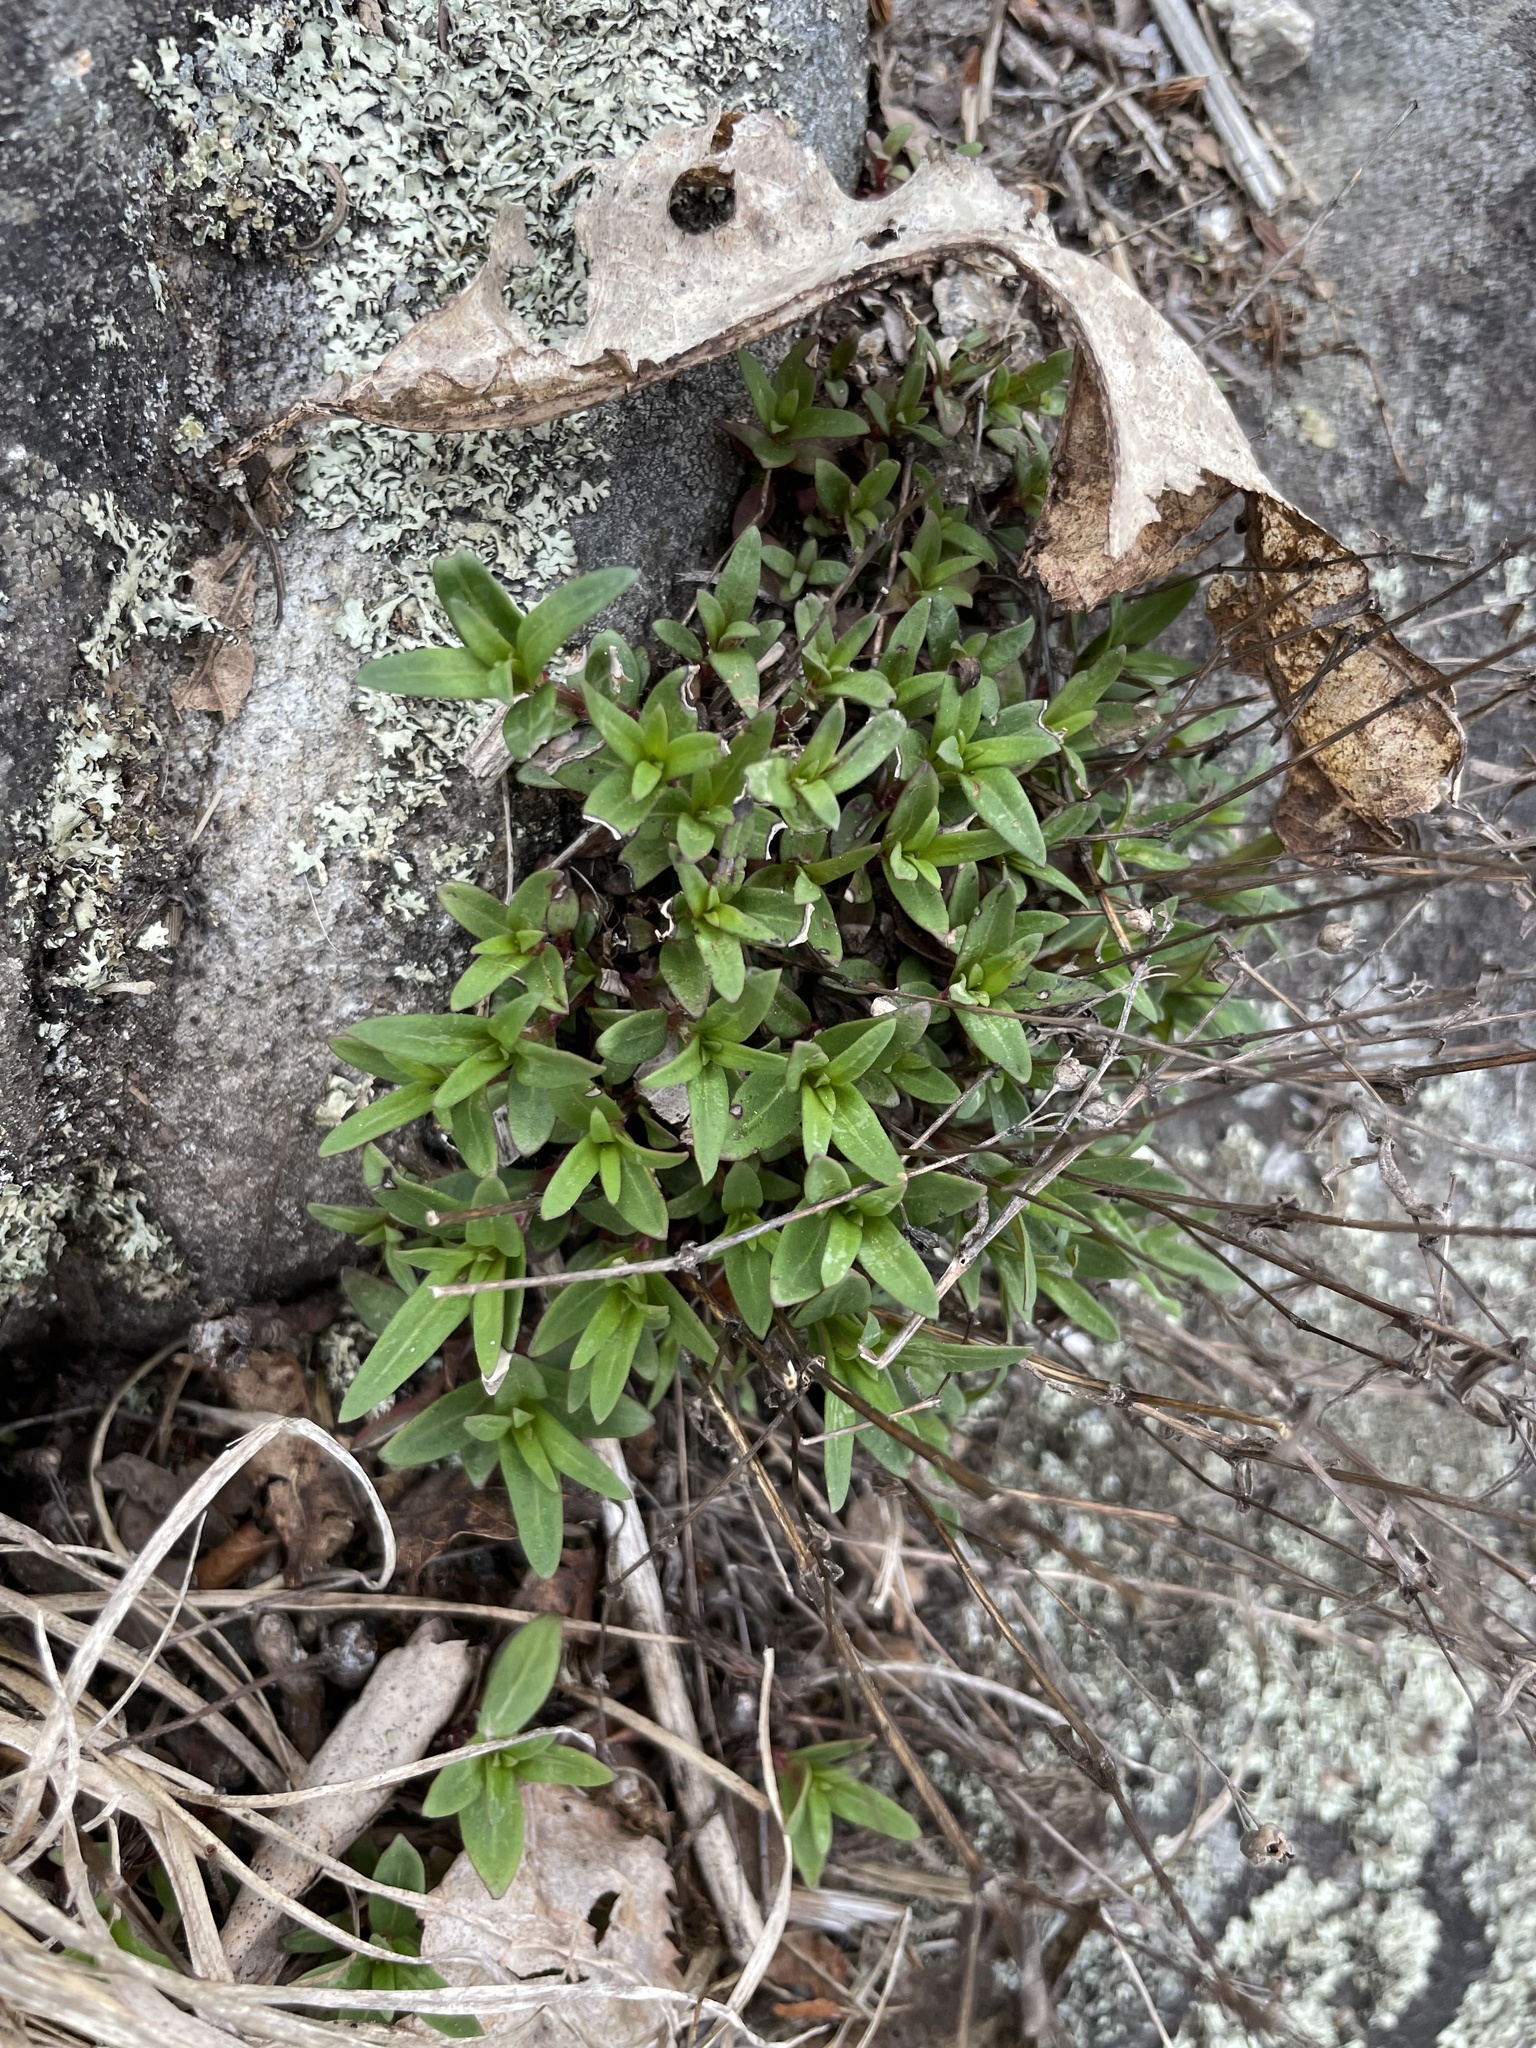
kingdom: Plantae
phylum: Tracheophyta
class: Magnoliopsida
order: Gentianales
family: Rubiaceae
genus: Houstonia
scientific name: Houstonia longifolia
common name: Long-leaved bluets
